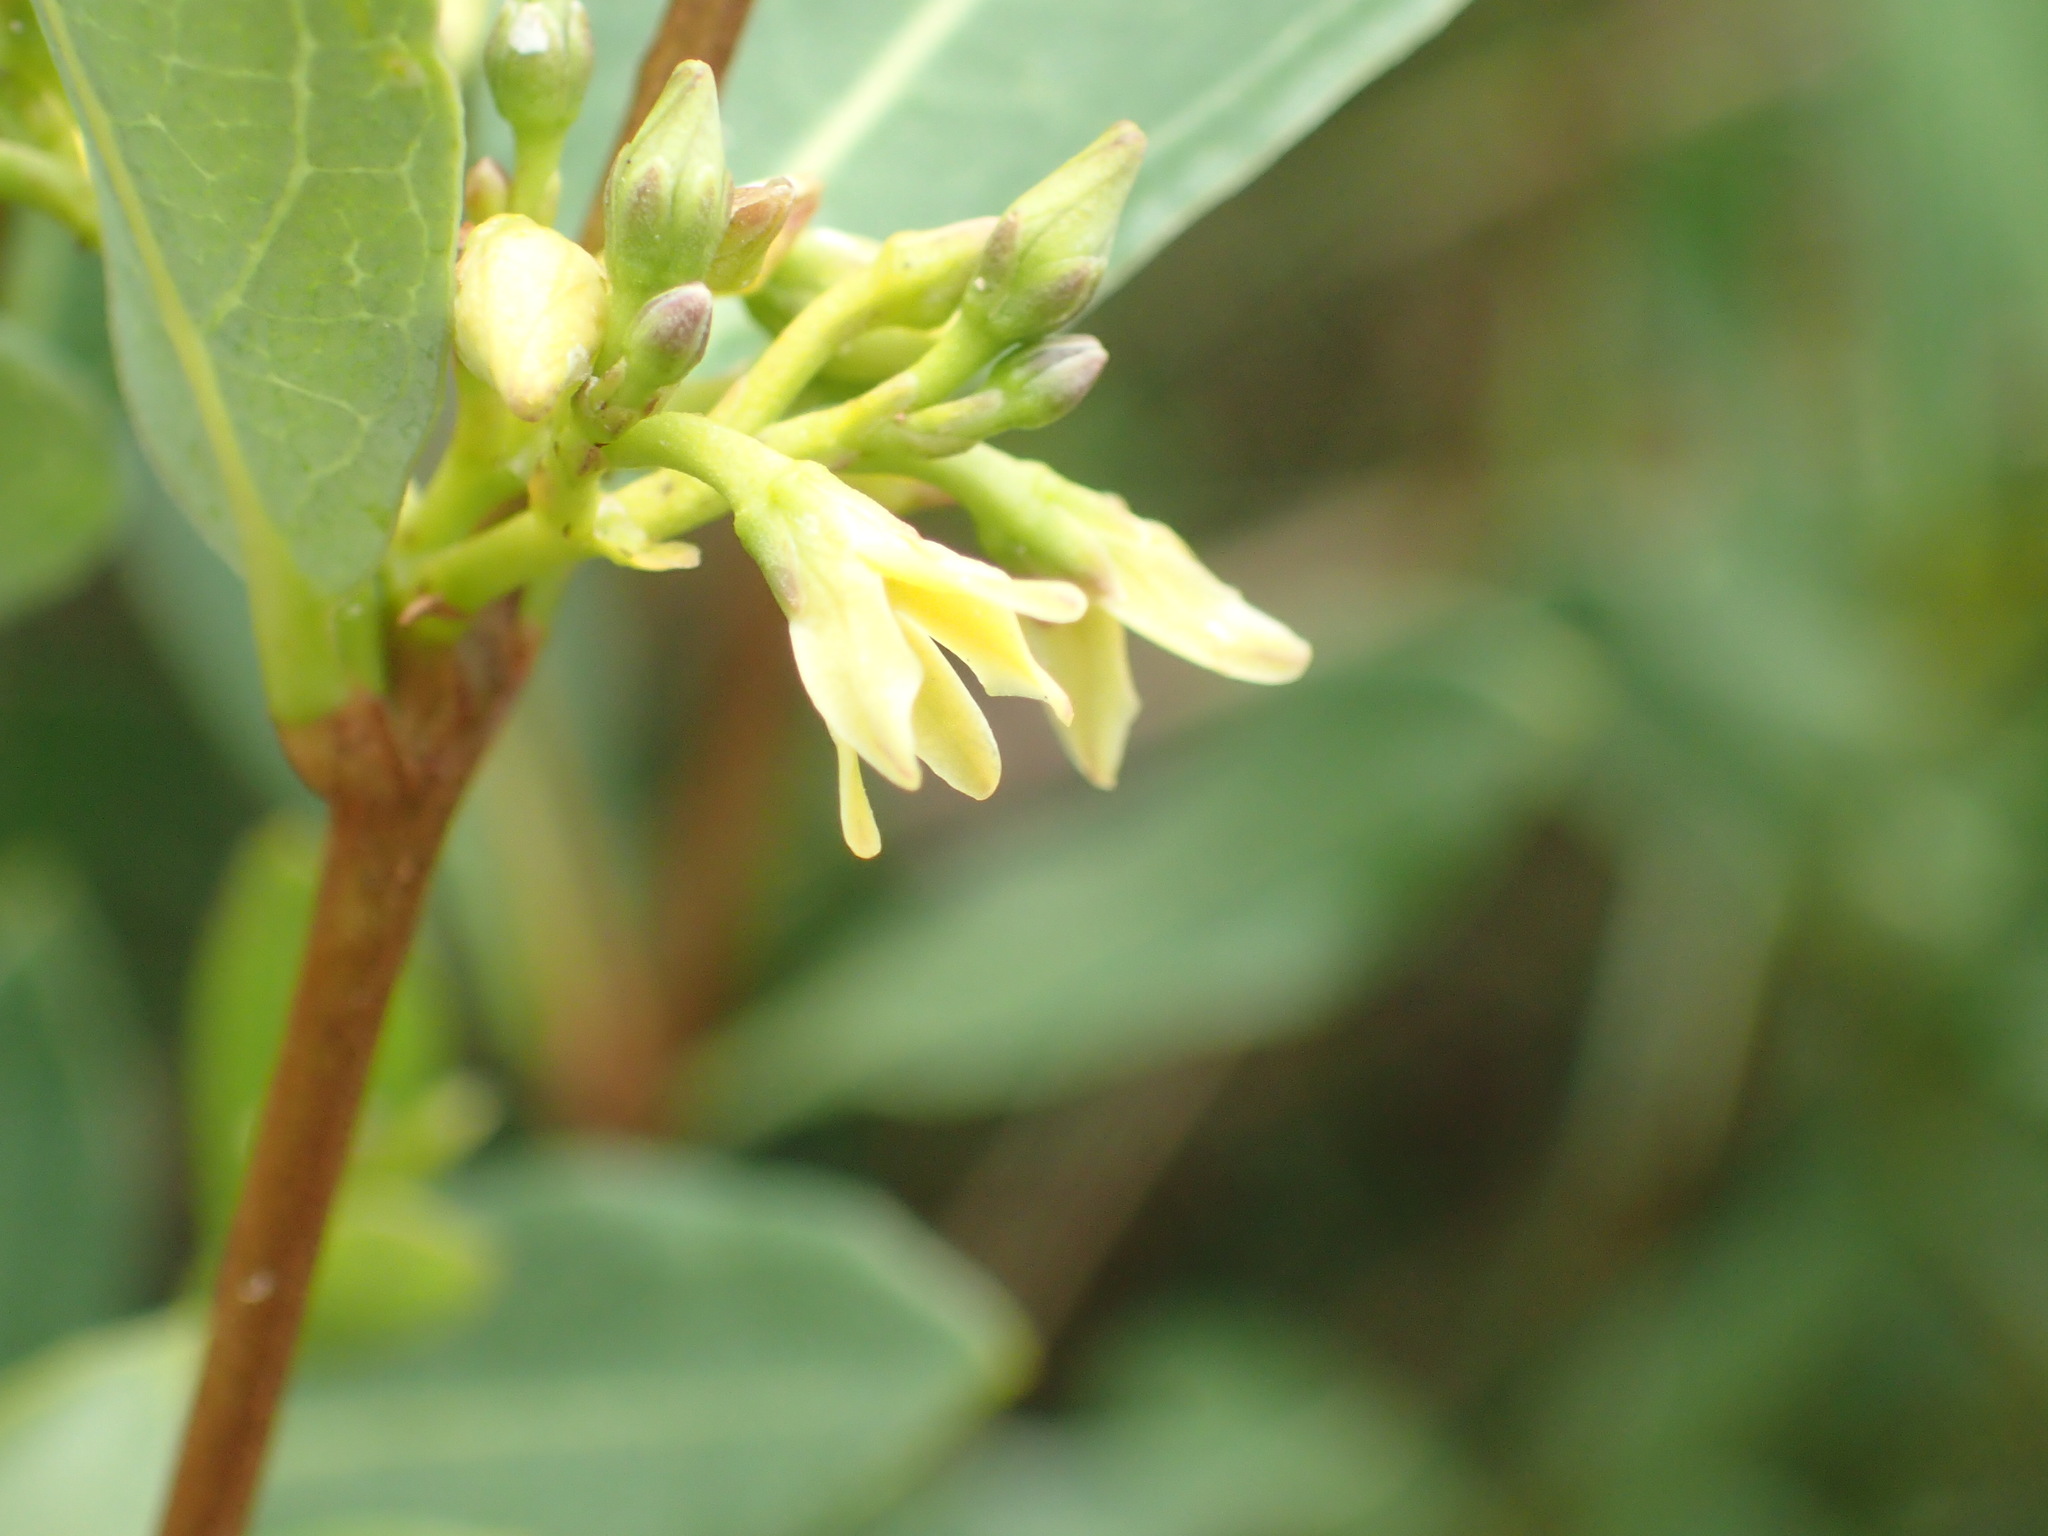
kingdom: Plantae
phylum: Tracheophyta
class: Magnoliopsida
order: Gentianales
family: Apocynaceae
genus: Cryptolepis
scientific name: Cryptolepis oblongifolia
